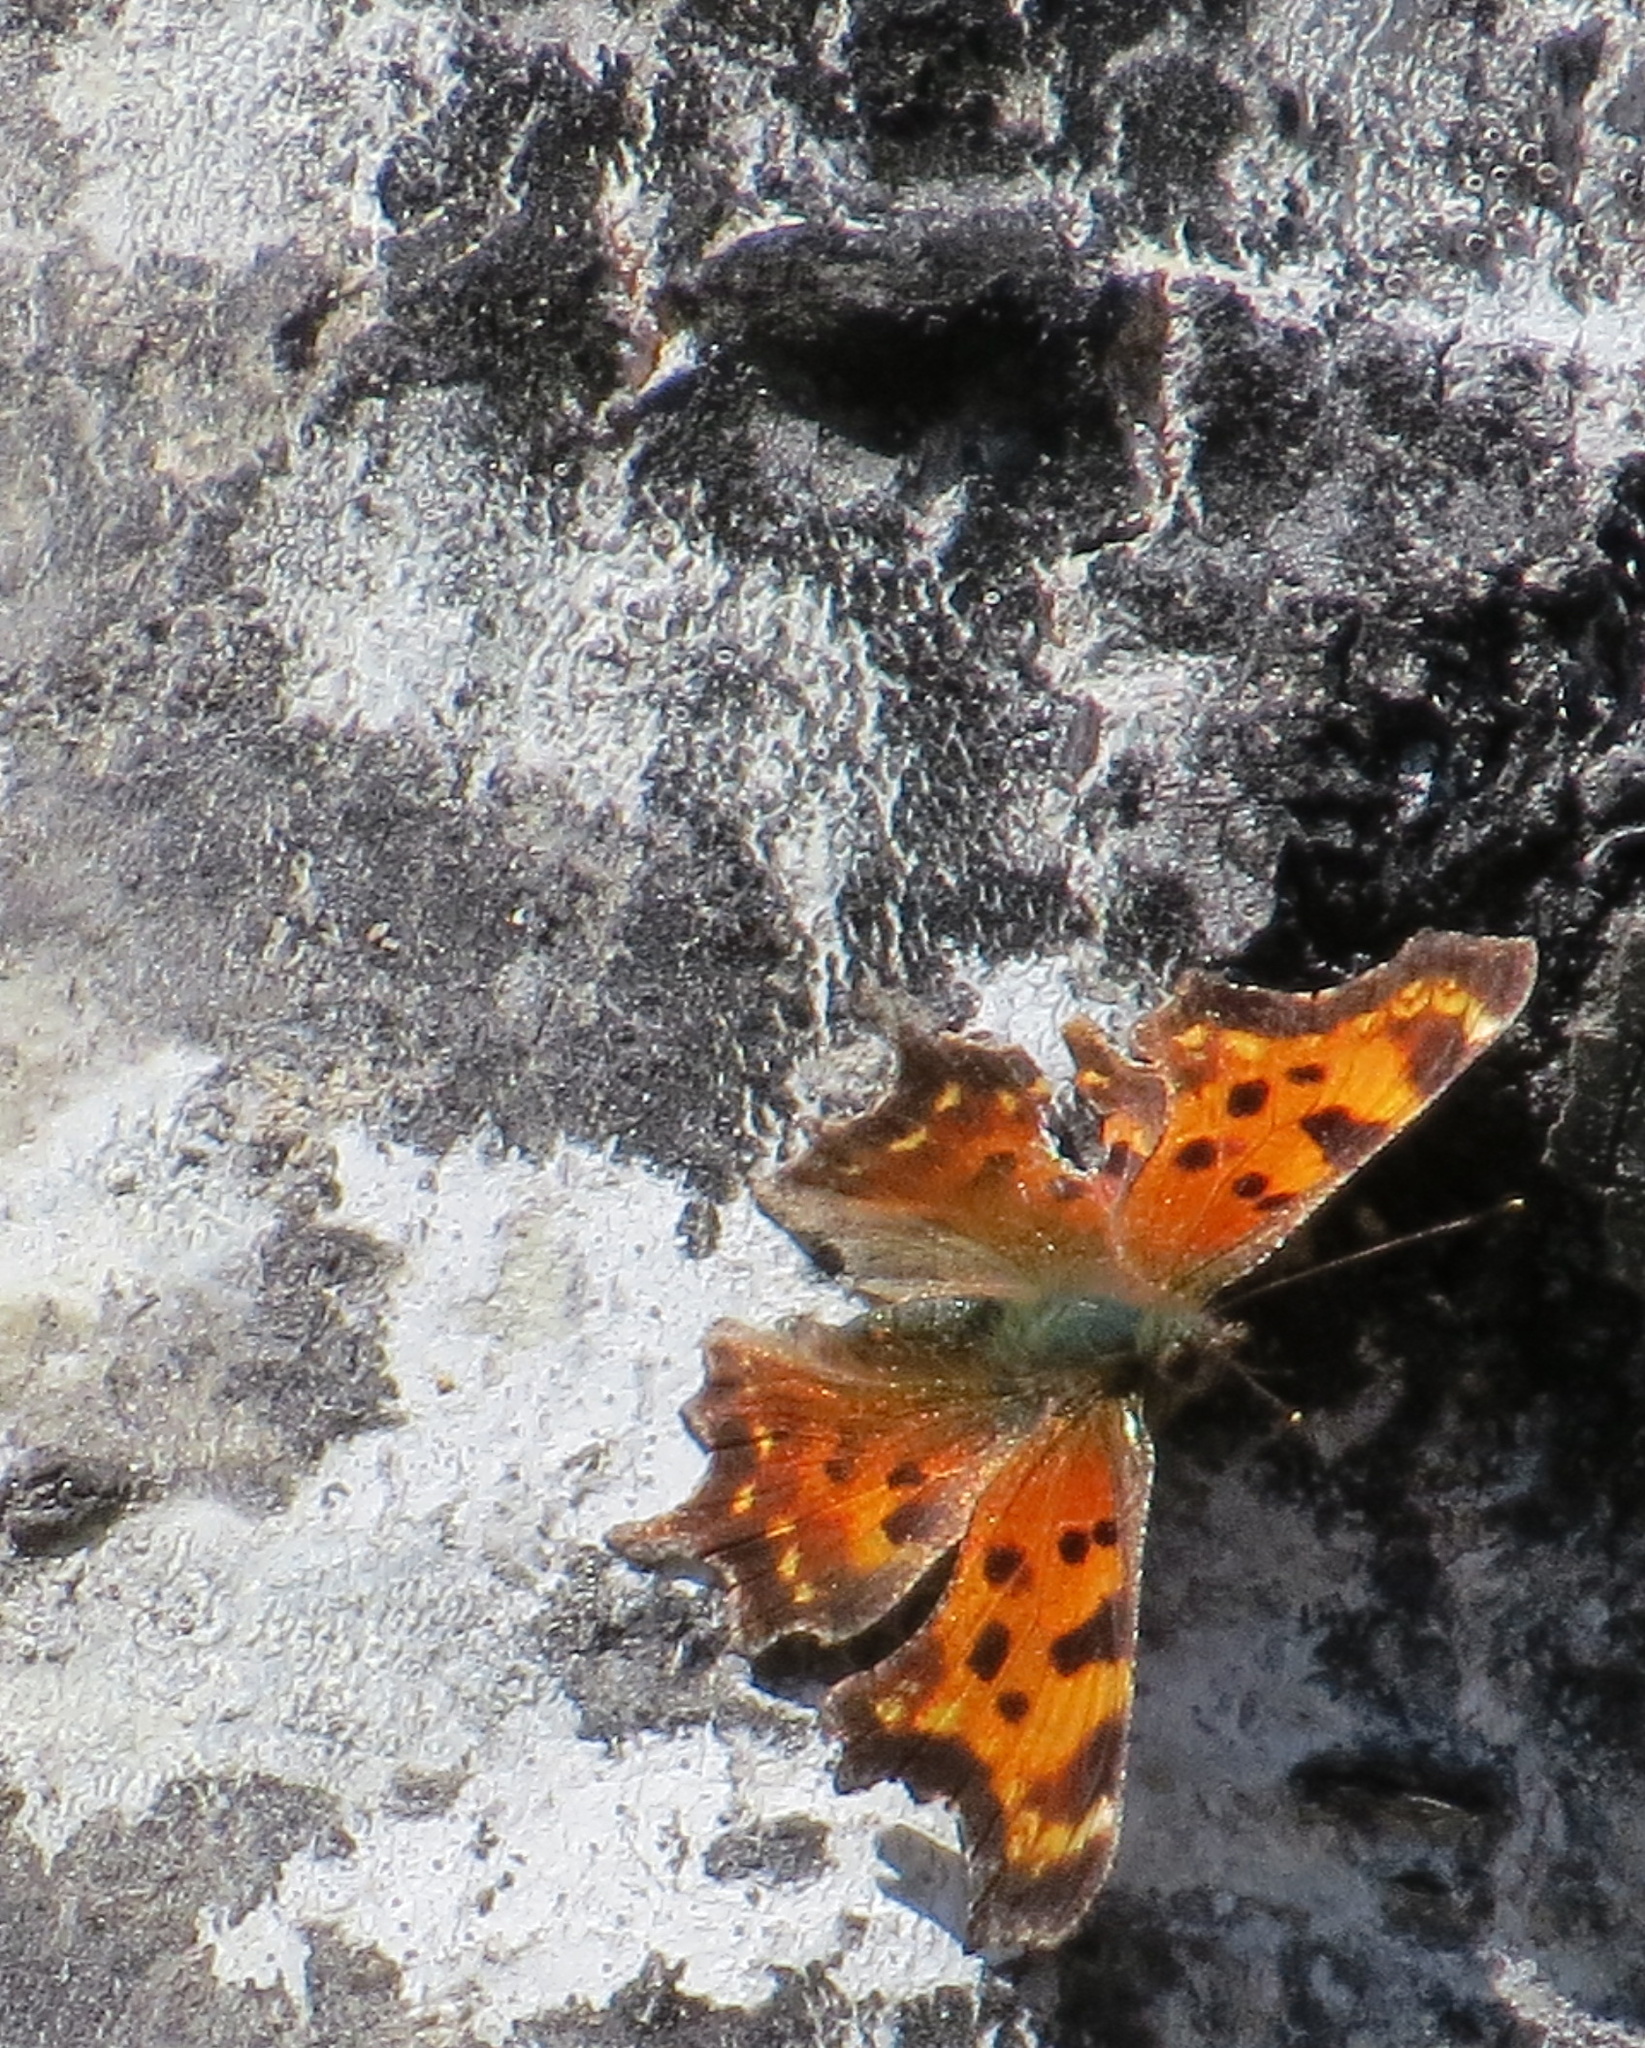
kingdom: Animalia
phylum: Arthropoda
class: Insecta
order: Lepidoptera
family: Nymphalidae
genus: Polygonia
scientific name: Polygonia faunus
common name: Green comma
